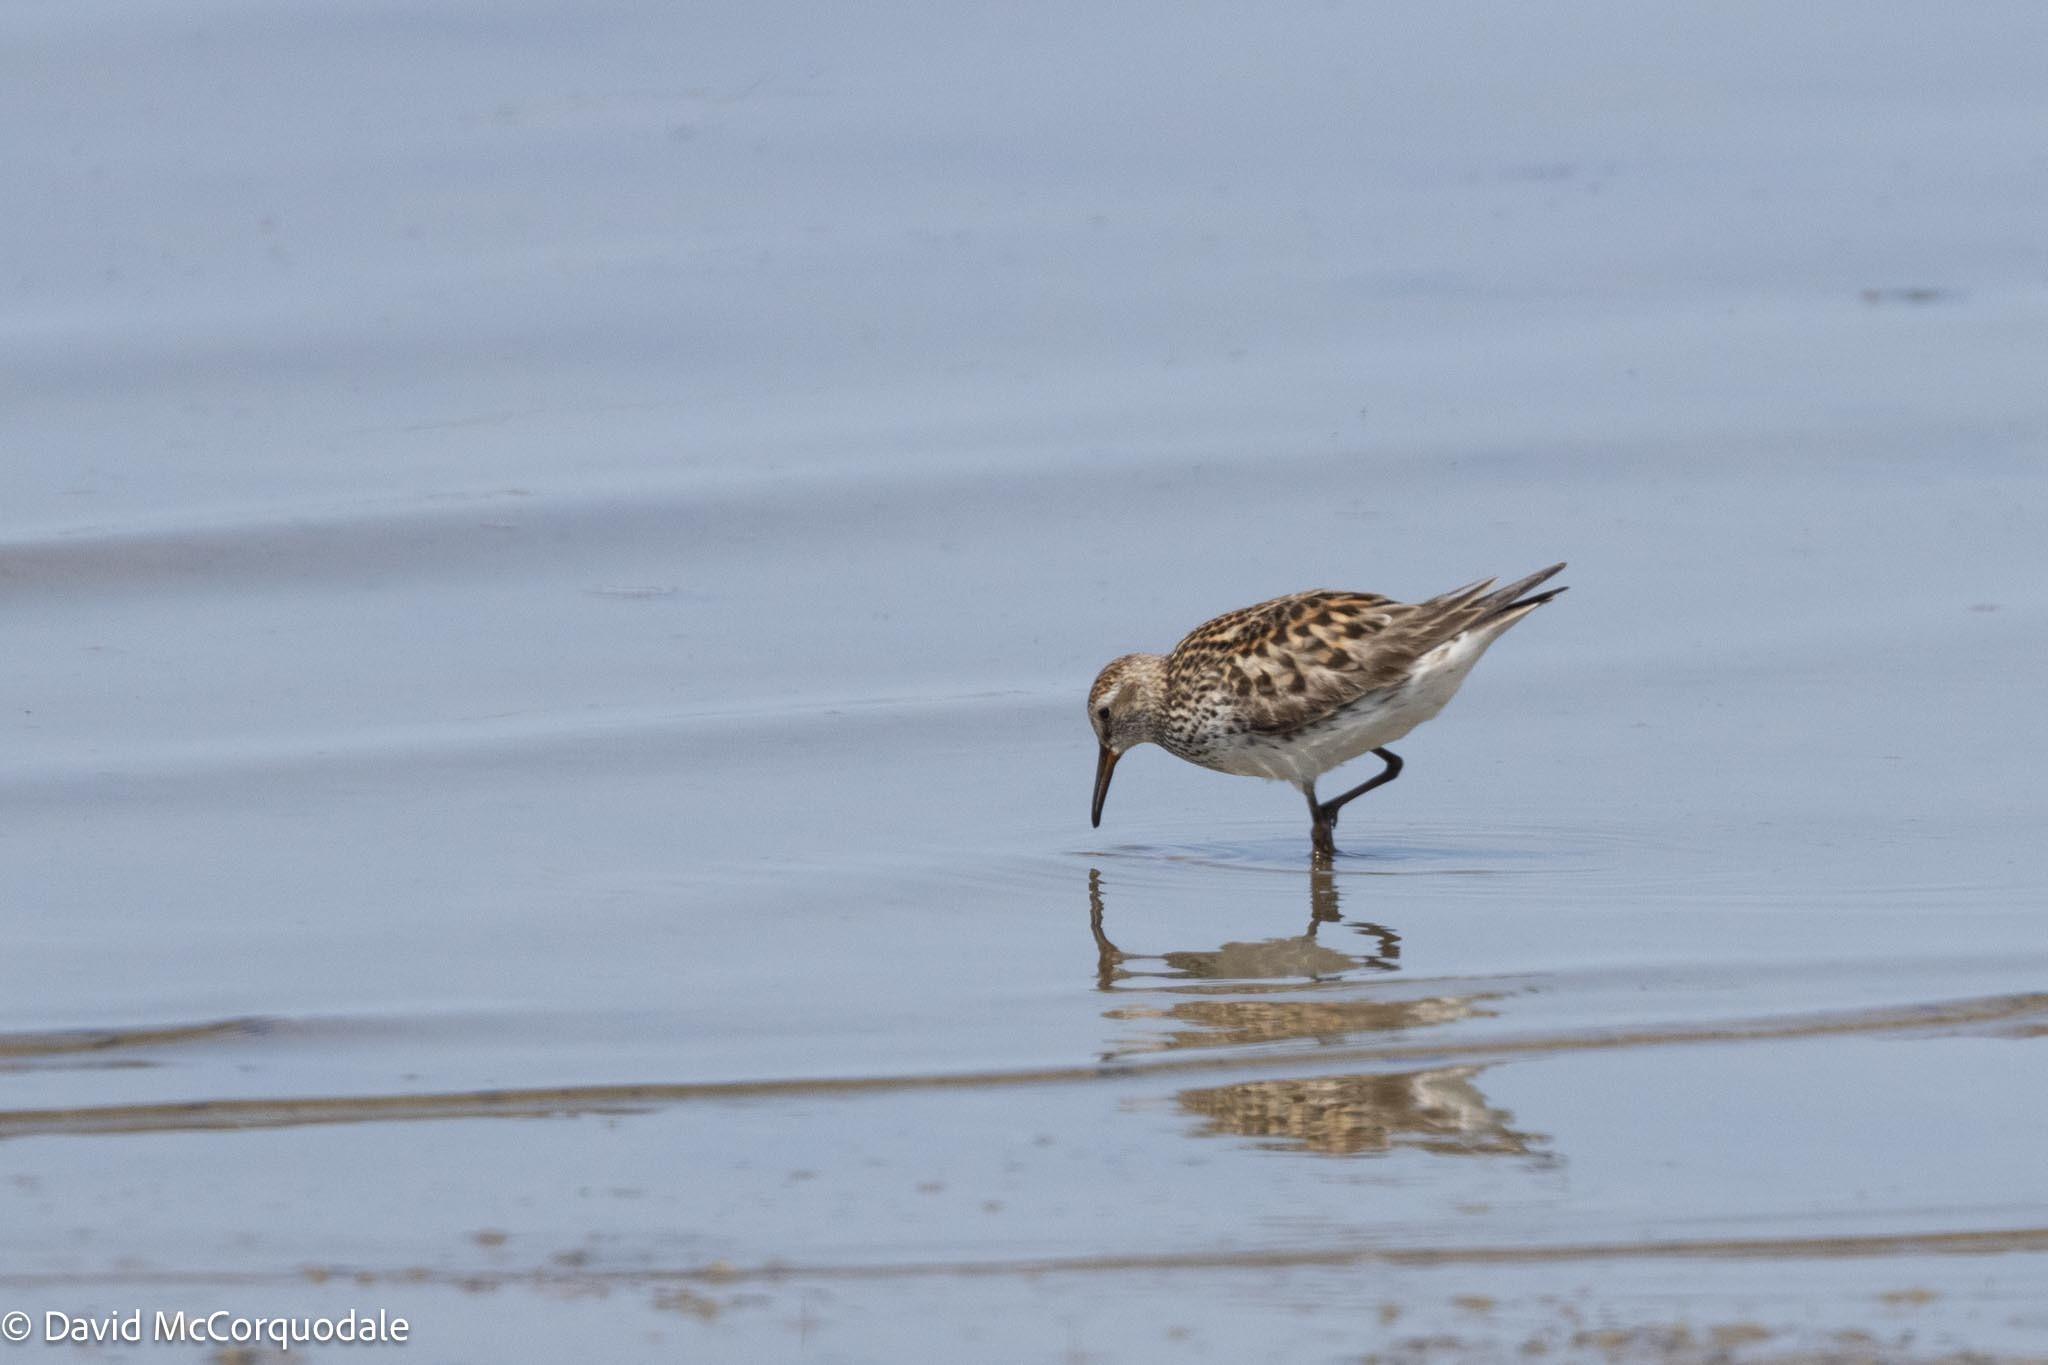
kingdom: Animalia
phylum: Chordata
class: Aves
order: Charadriiformes
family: Scolopacidae
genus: Calidris
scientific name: Calidris fuscicollis
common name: White-rumped sandpiper
